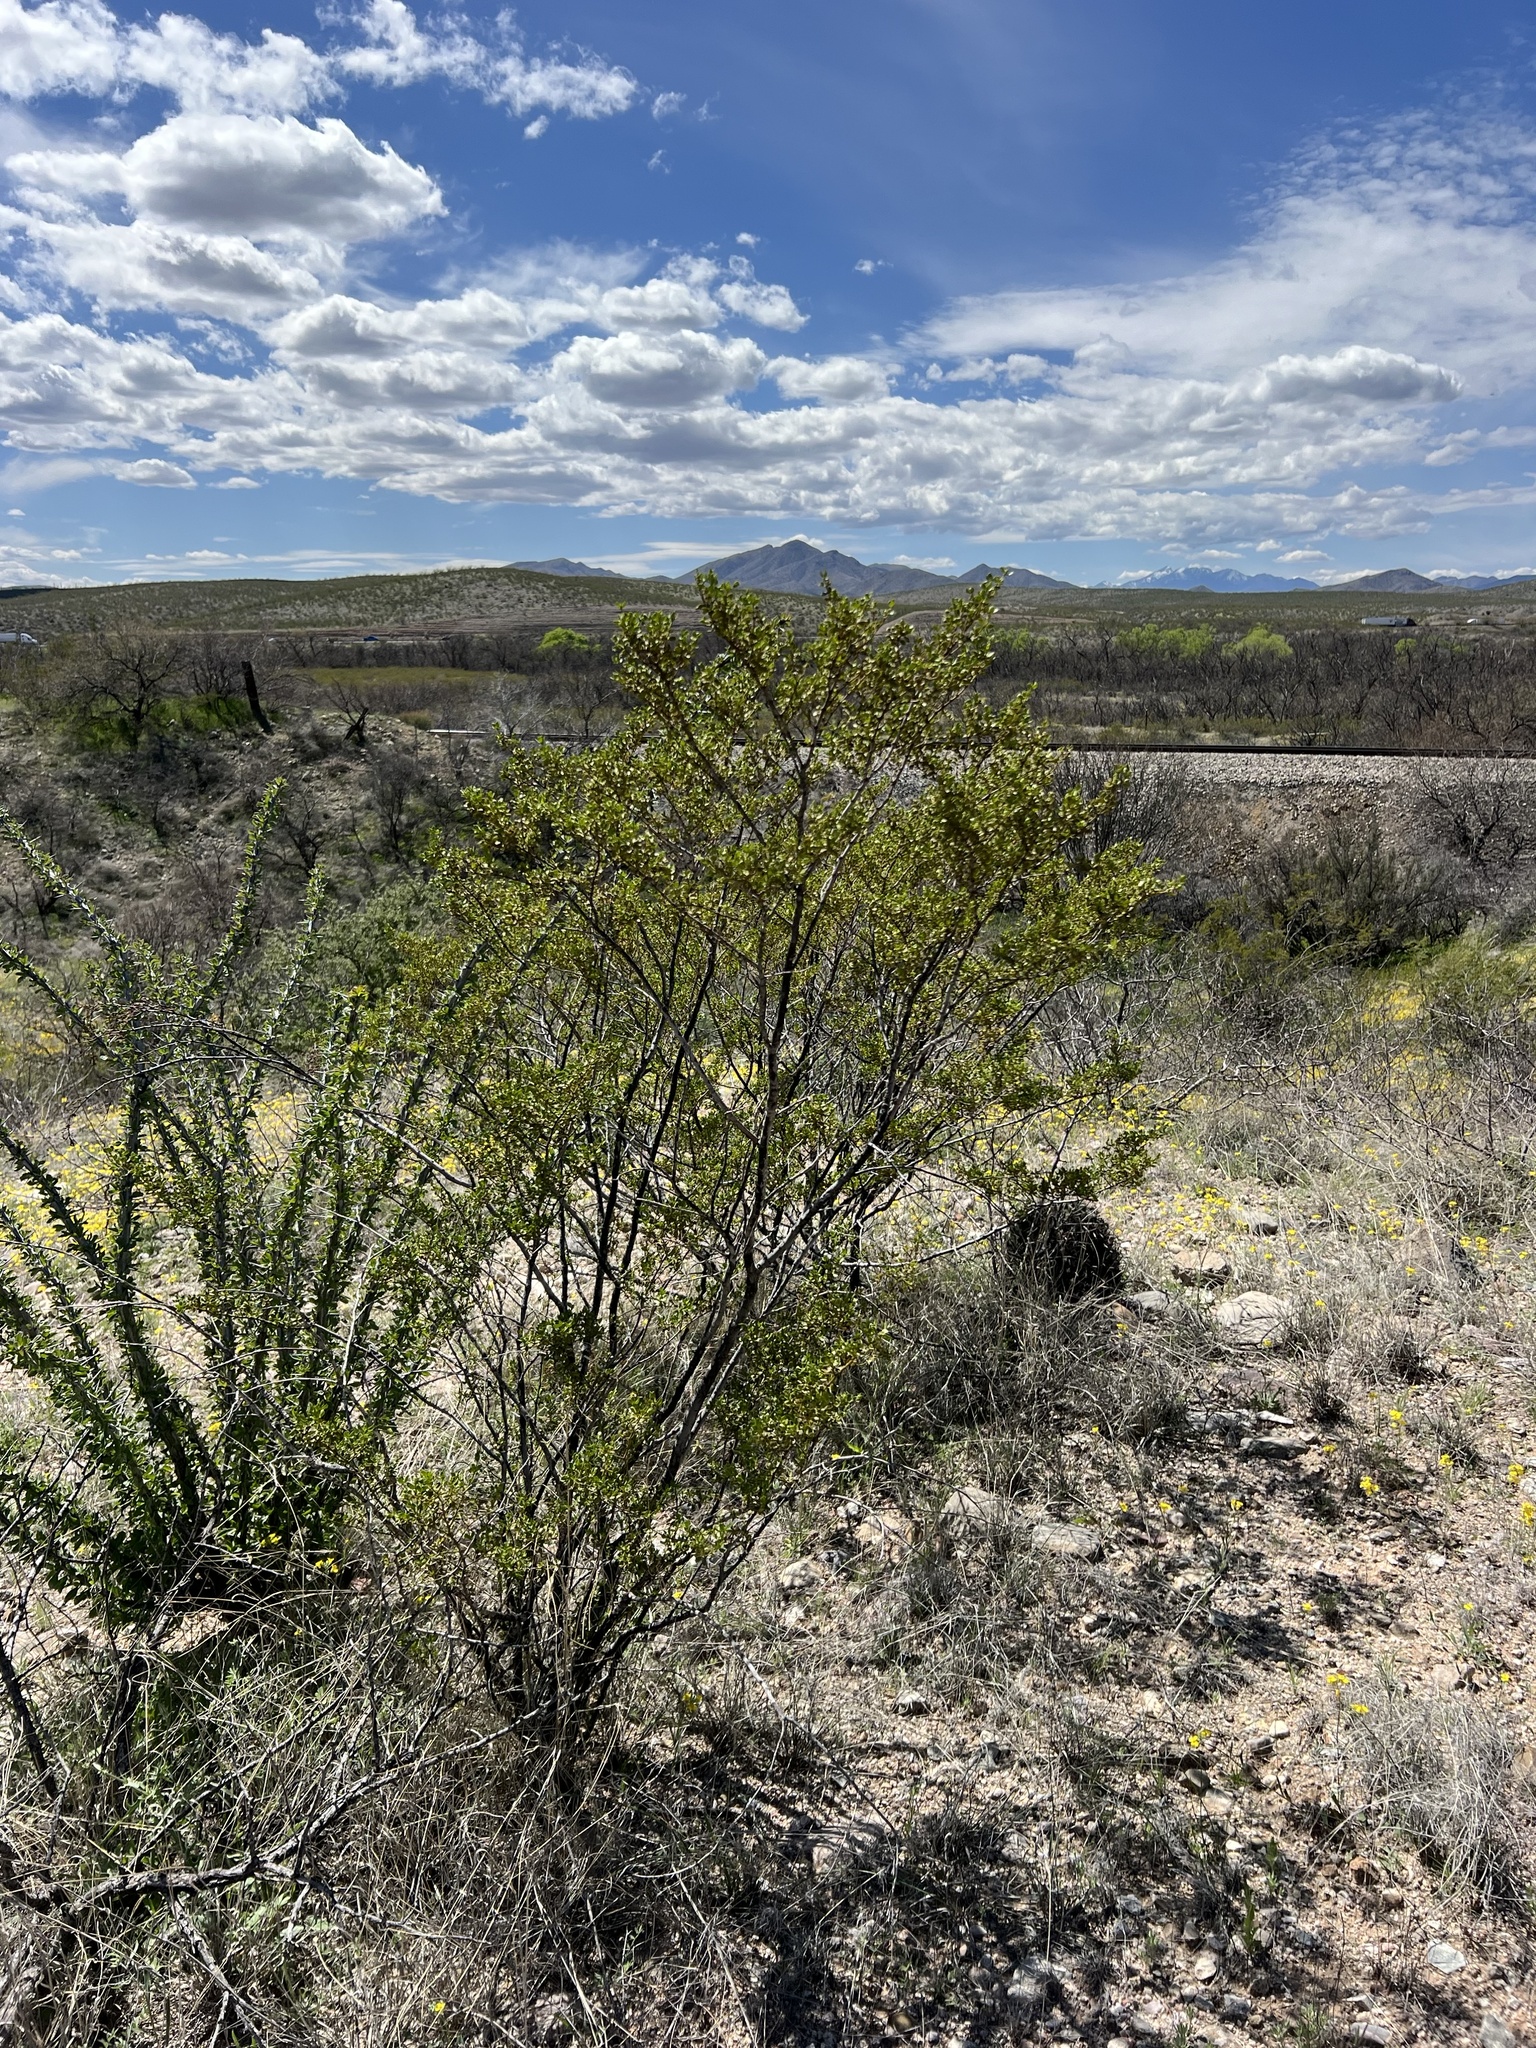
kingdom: Plantae
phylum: Tracheophyta
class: Magnoliopsida
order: Zygophyllales
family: Zygophyllaceae
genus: Larrea
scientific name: Larrea tridentata
